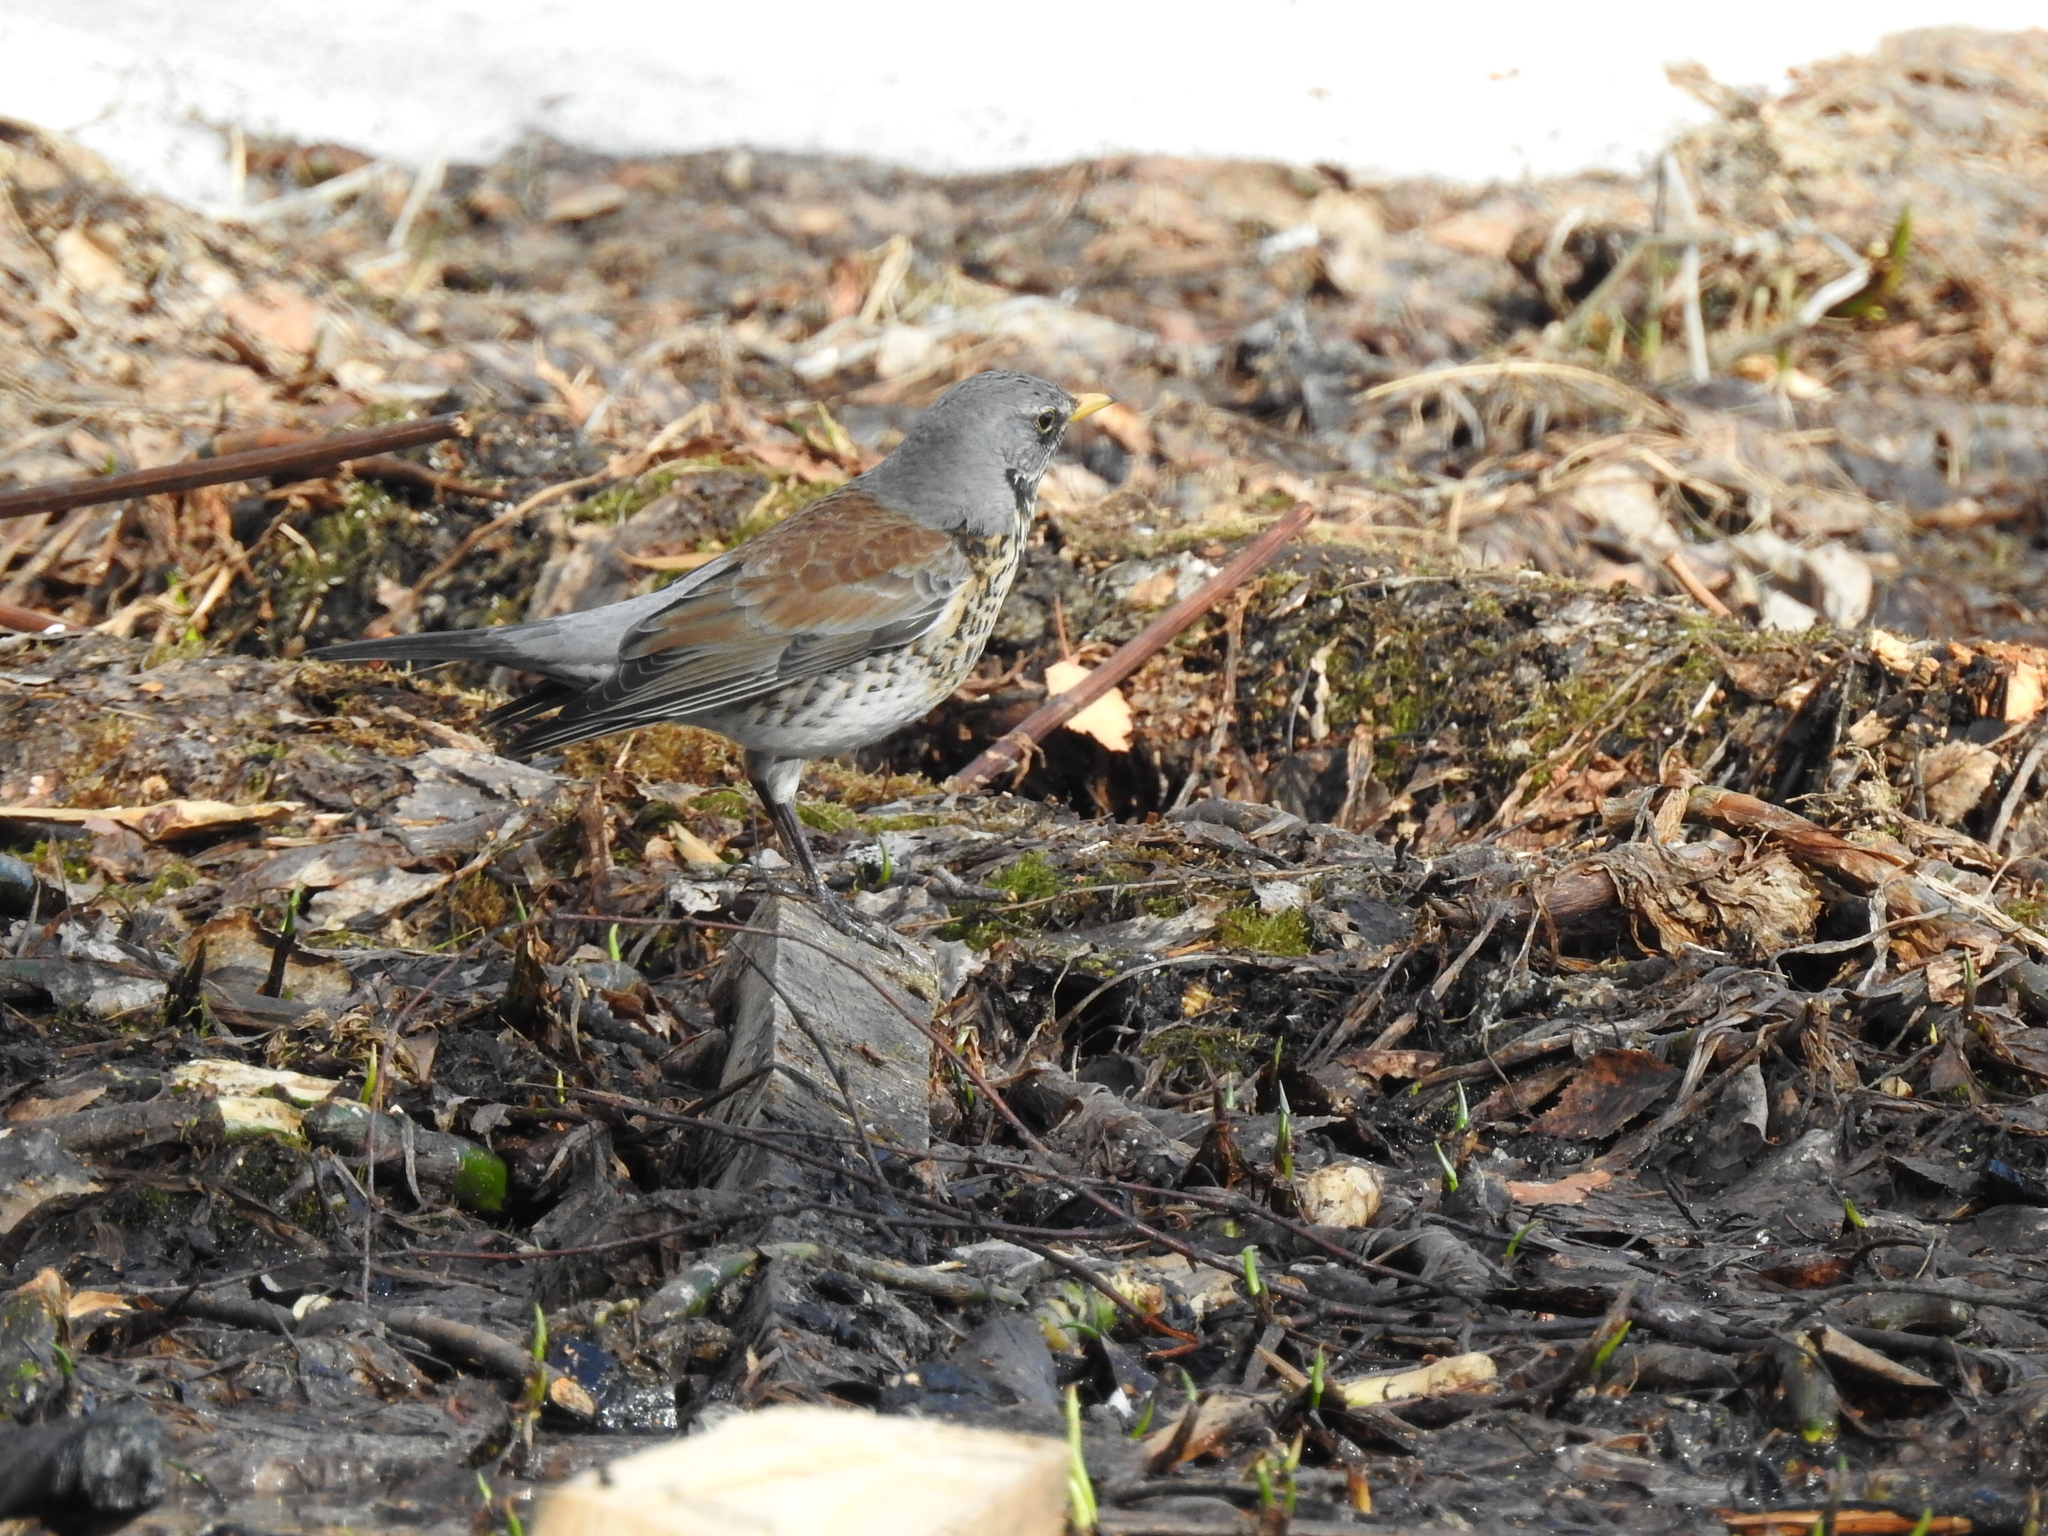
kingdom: Animalia
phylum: Chordata
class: Aves
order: Passeriformes
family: Turdidae
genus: Turdus
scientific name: Turdus pilaris
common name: Fieldfare
